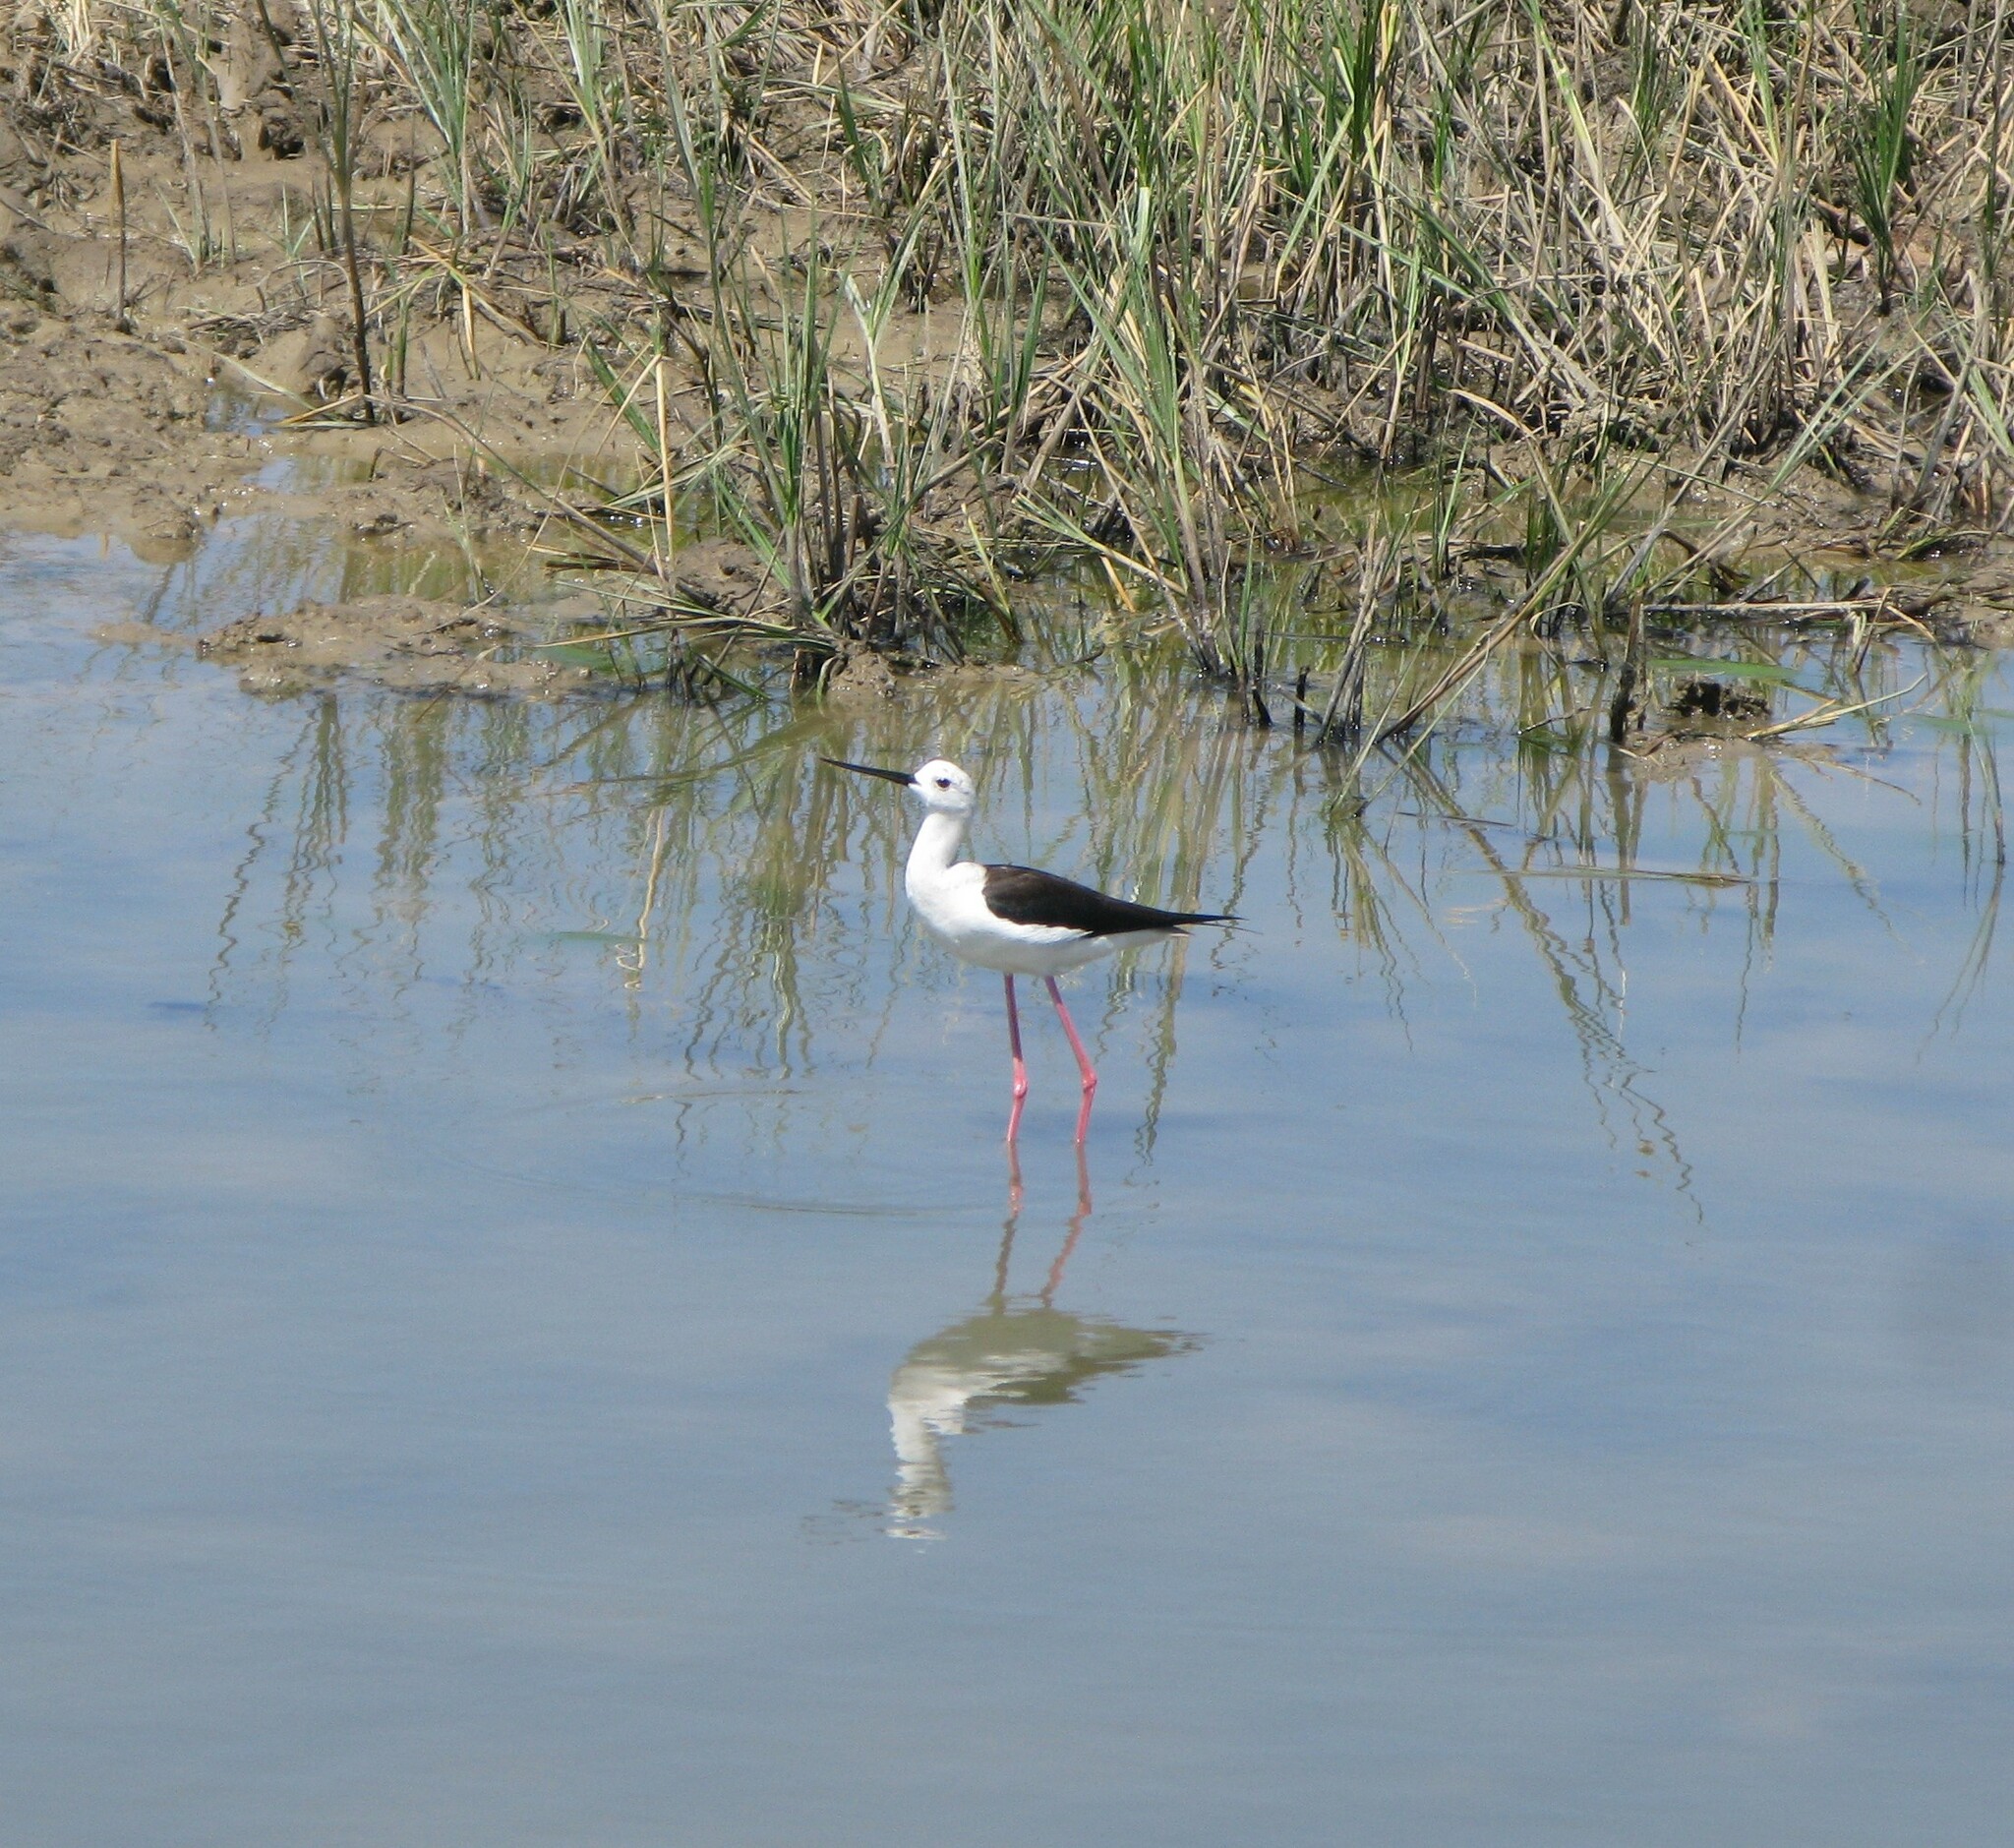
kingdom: Animalia
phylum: Chordata
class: Aves
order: Charadriiformes
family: Recurvirostridae
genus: Himantopus
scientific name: Himantopus himantopus
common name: Black-winged stilt
